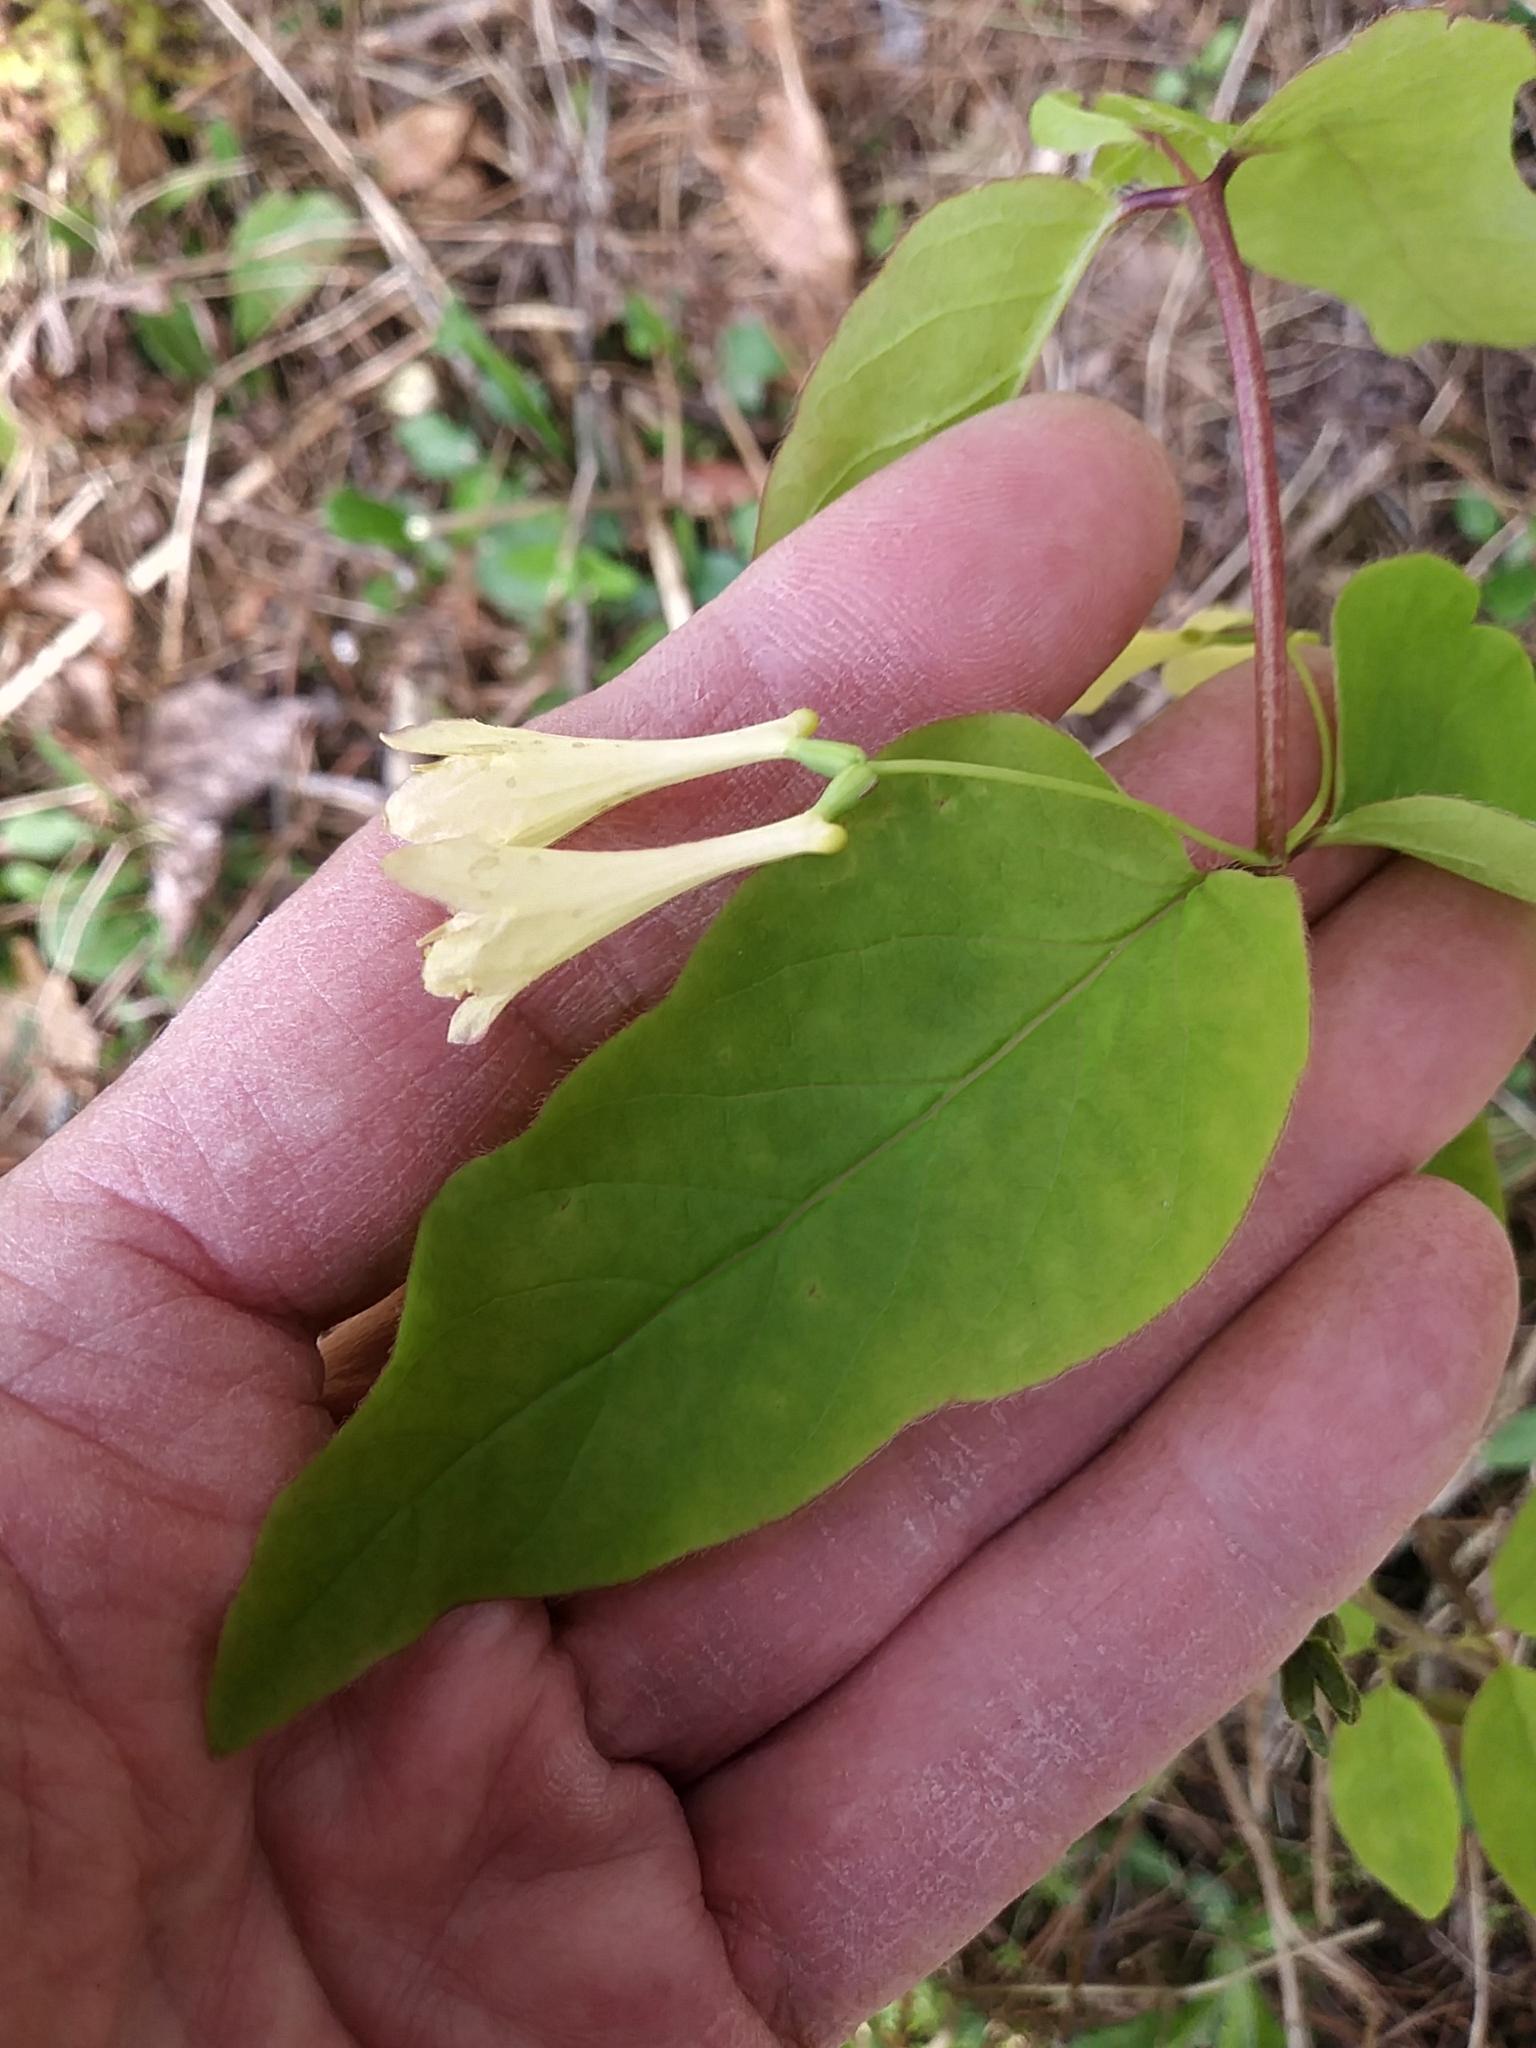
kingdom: Plantae
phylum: Tracheophyta
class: Magnoliopsida
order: Dipsacales
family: Caprifoliaceae
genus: Lonicera
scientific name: Lonicera canadensis
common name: American fly-honeysuckle
